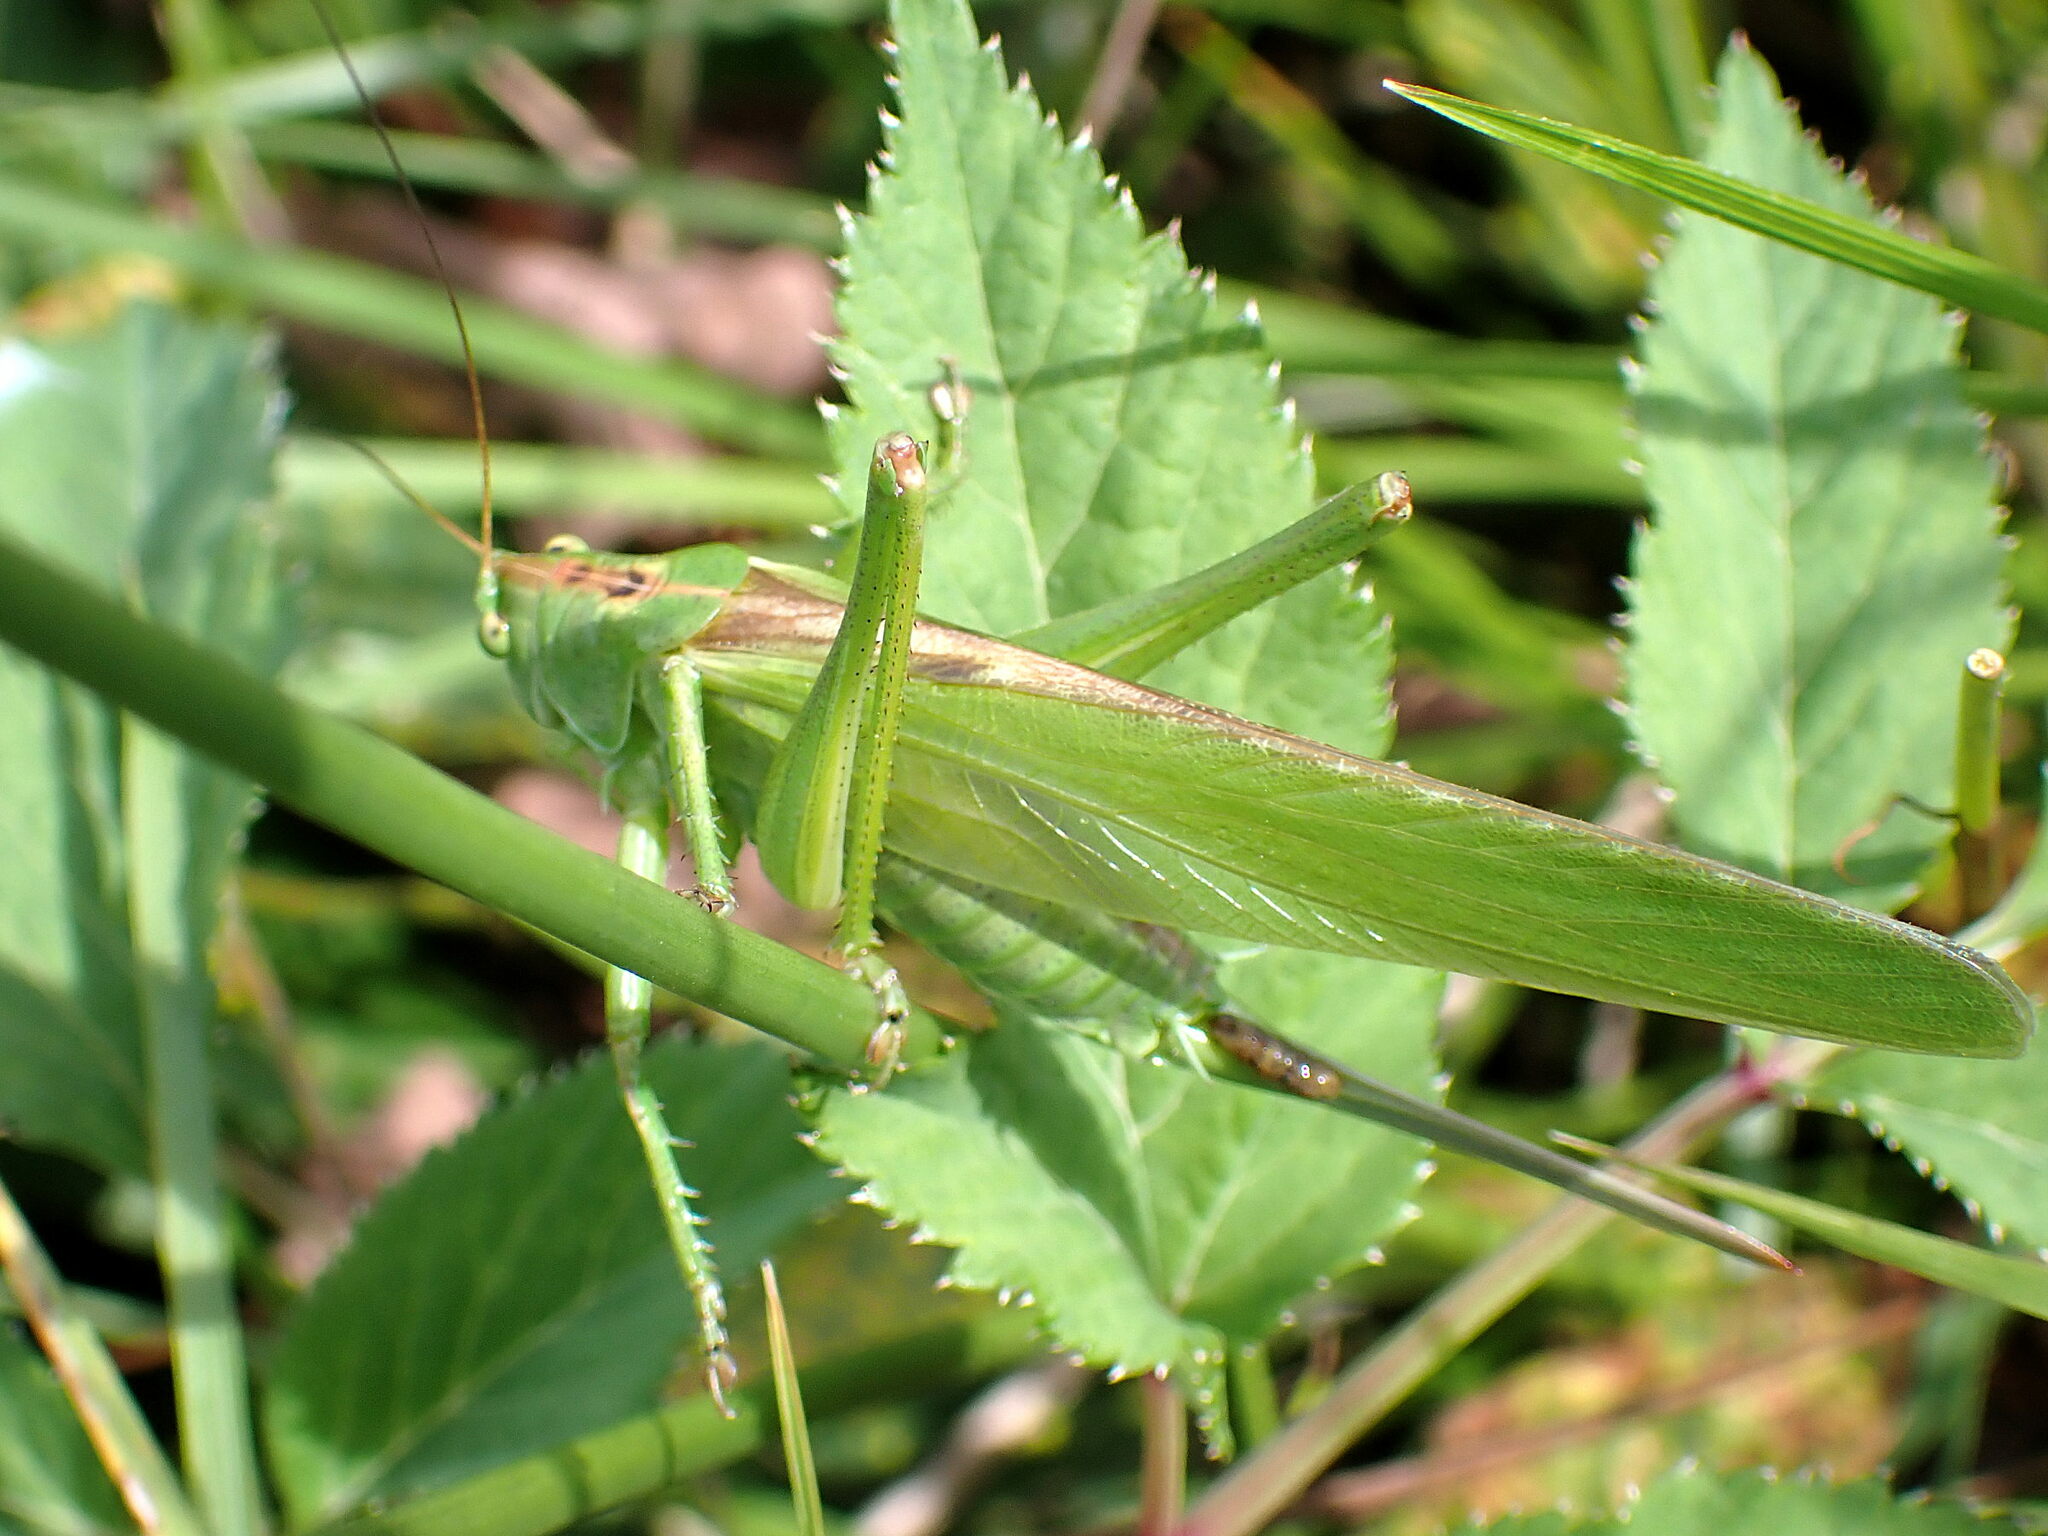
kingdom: Animalia
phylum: Arthropoda
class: Insecta
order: Orthoptera
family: Tettigoniidae
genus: Tettigonia
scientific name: Tettigonia viridissima
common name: Great green bush-cricket
